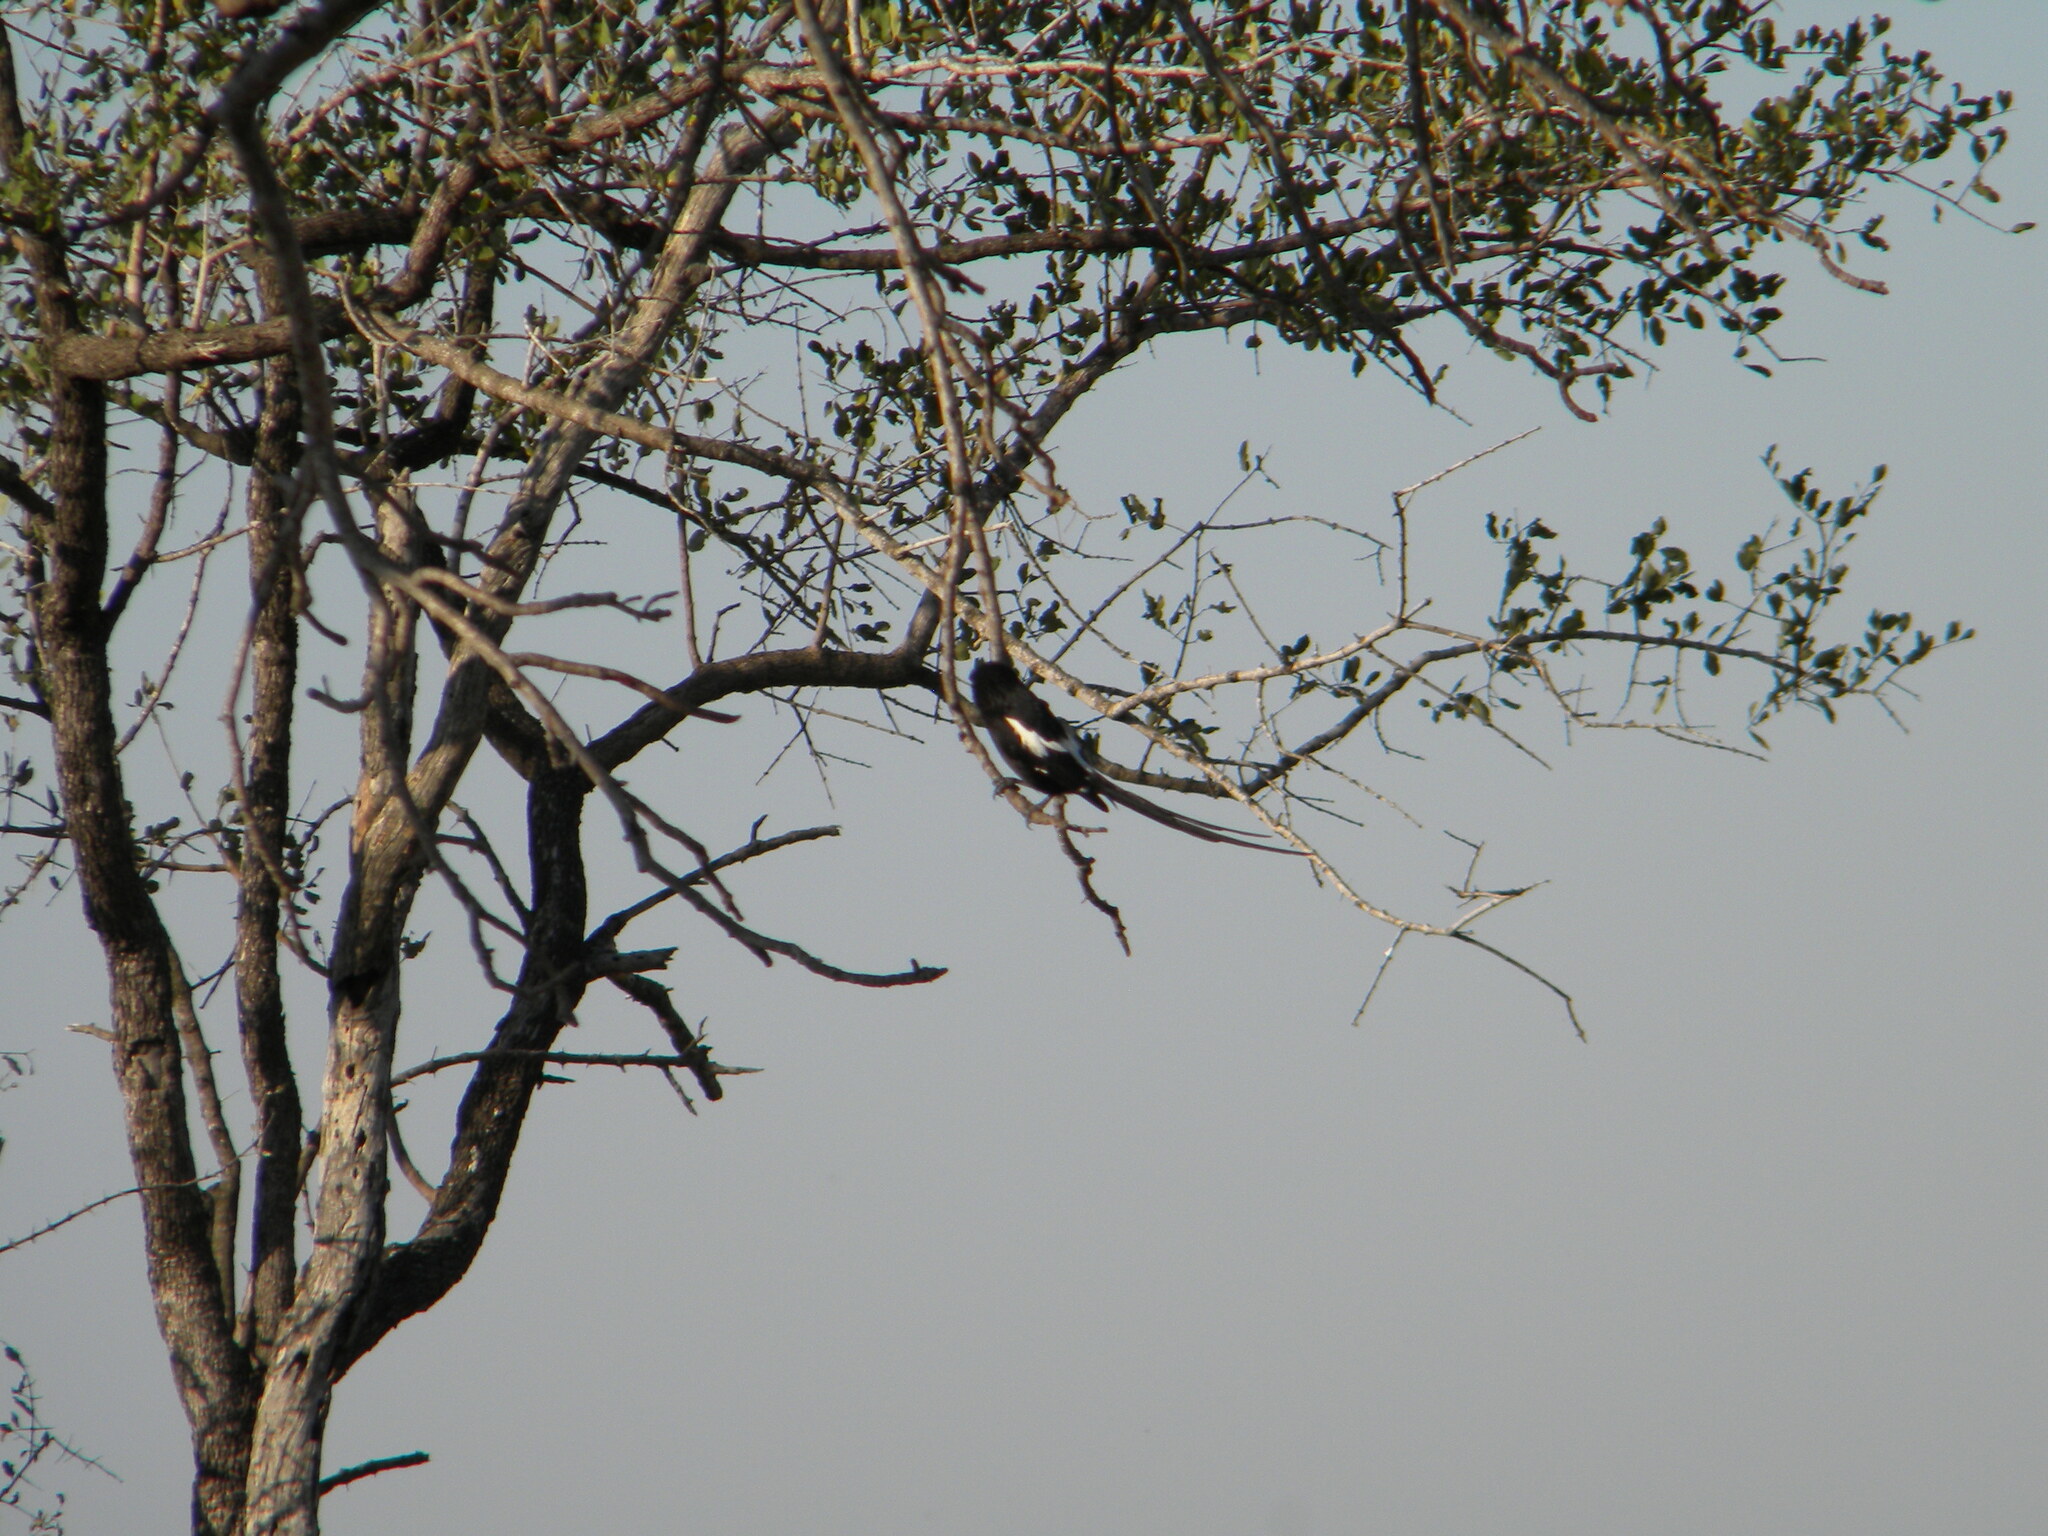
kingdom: Animalia
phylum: Chordata
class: Aves
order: Passeriformes
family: Laniidae
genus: Urolestes
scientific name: Urolestes melanoleucus
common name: Magpie shrike
